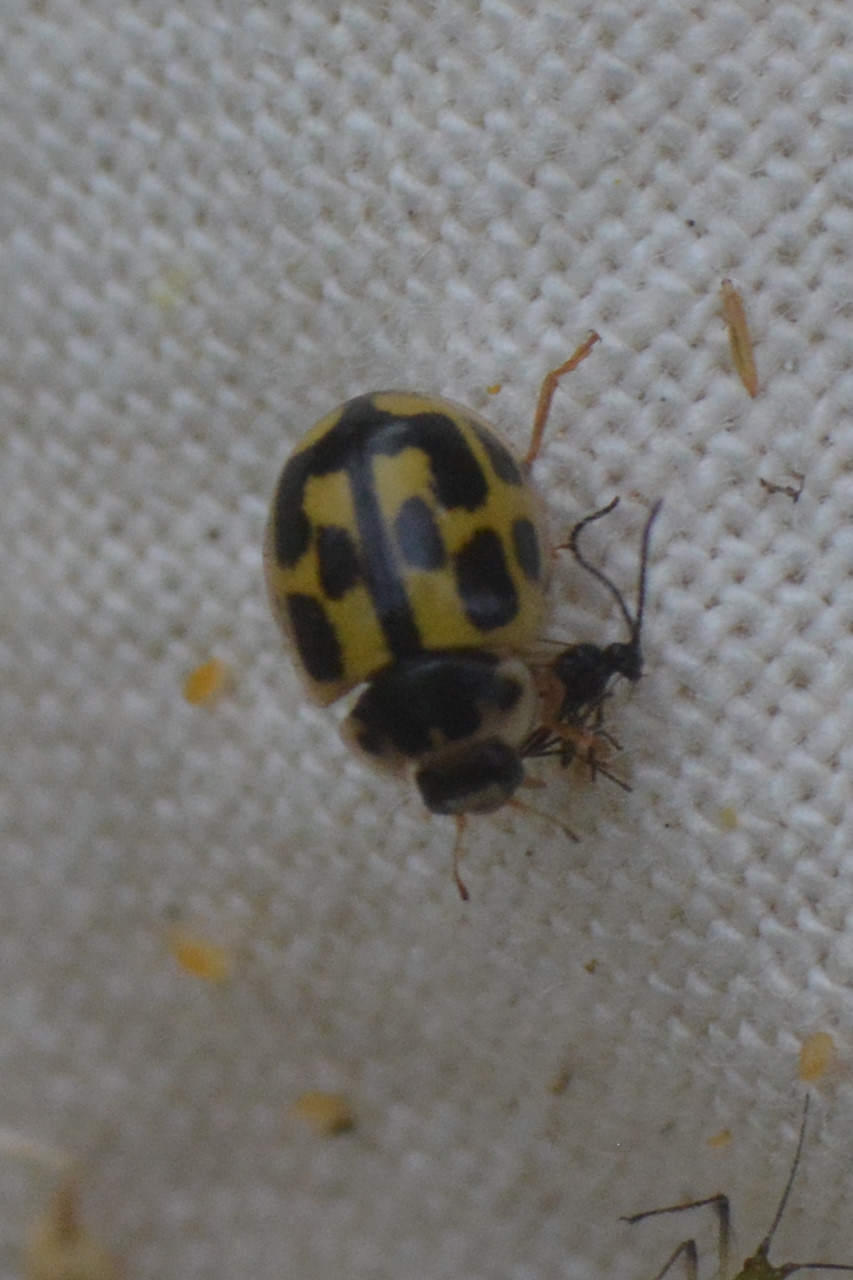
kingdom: Animalia
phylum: Arthropoda
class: Insecta
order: Coleoptera
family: Coccinellidae
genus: Propylaea
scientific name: Propylaea quatuordecimpunctata
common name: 14-spotted ladybird beetle
